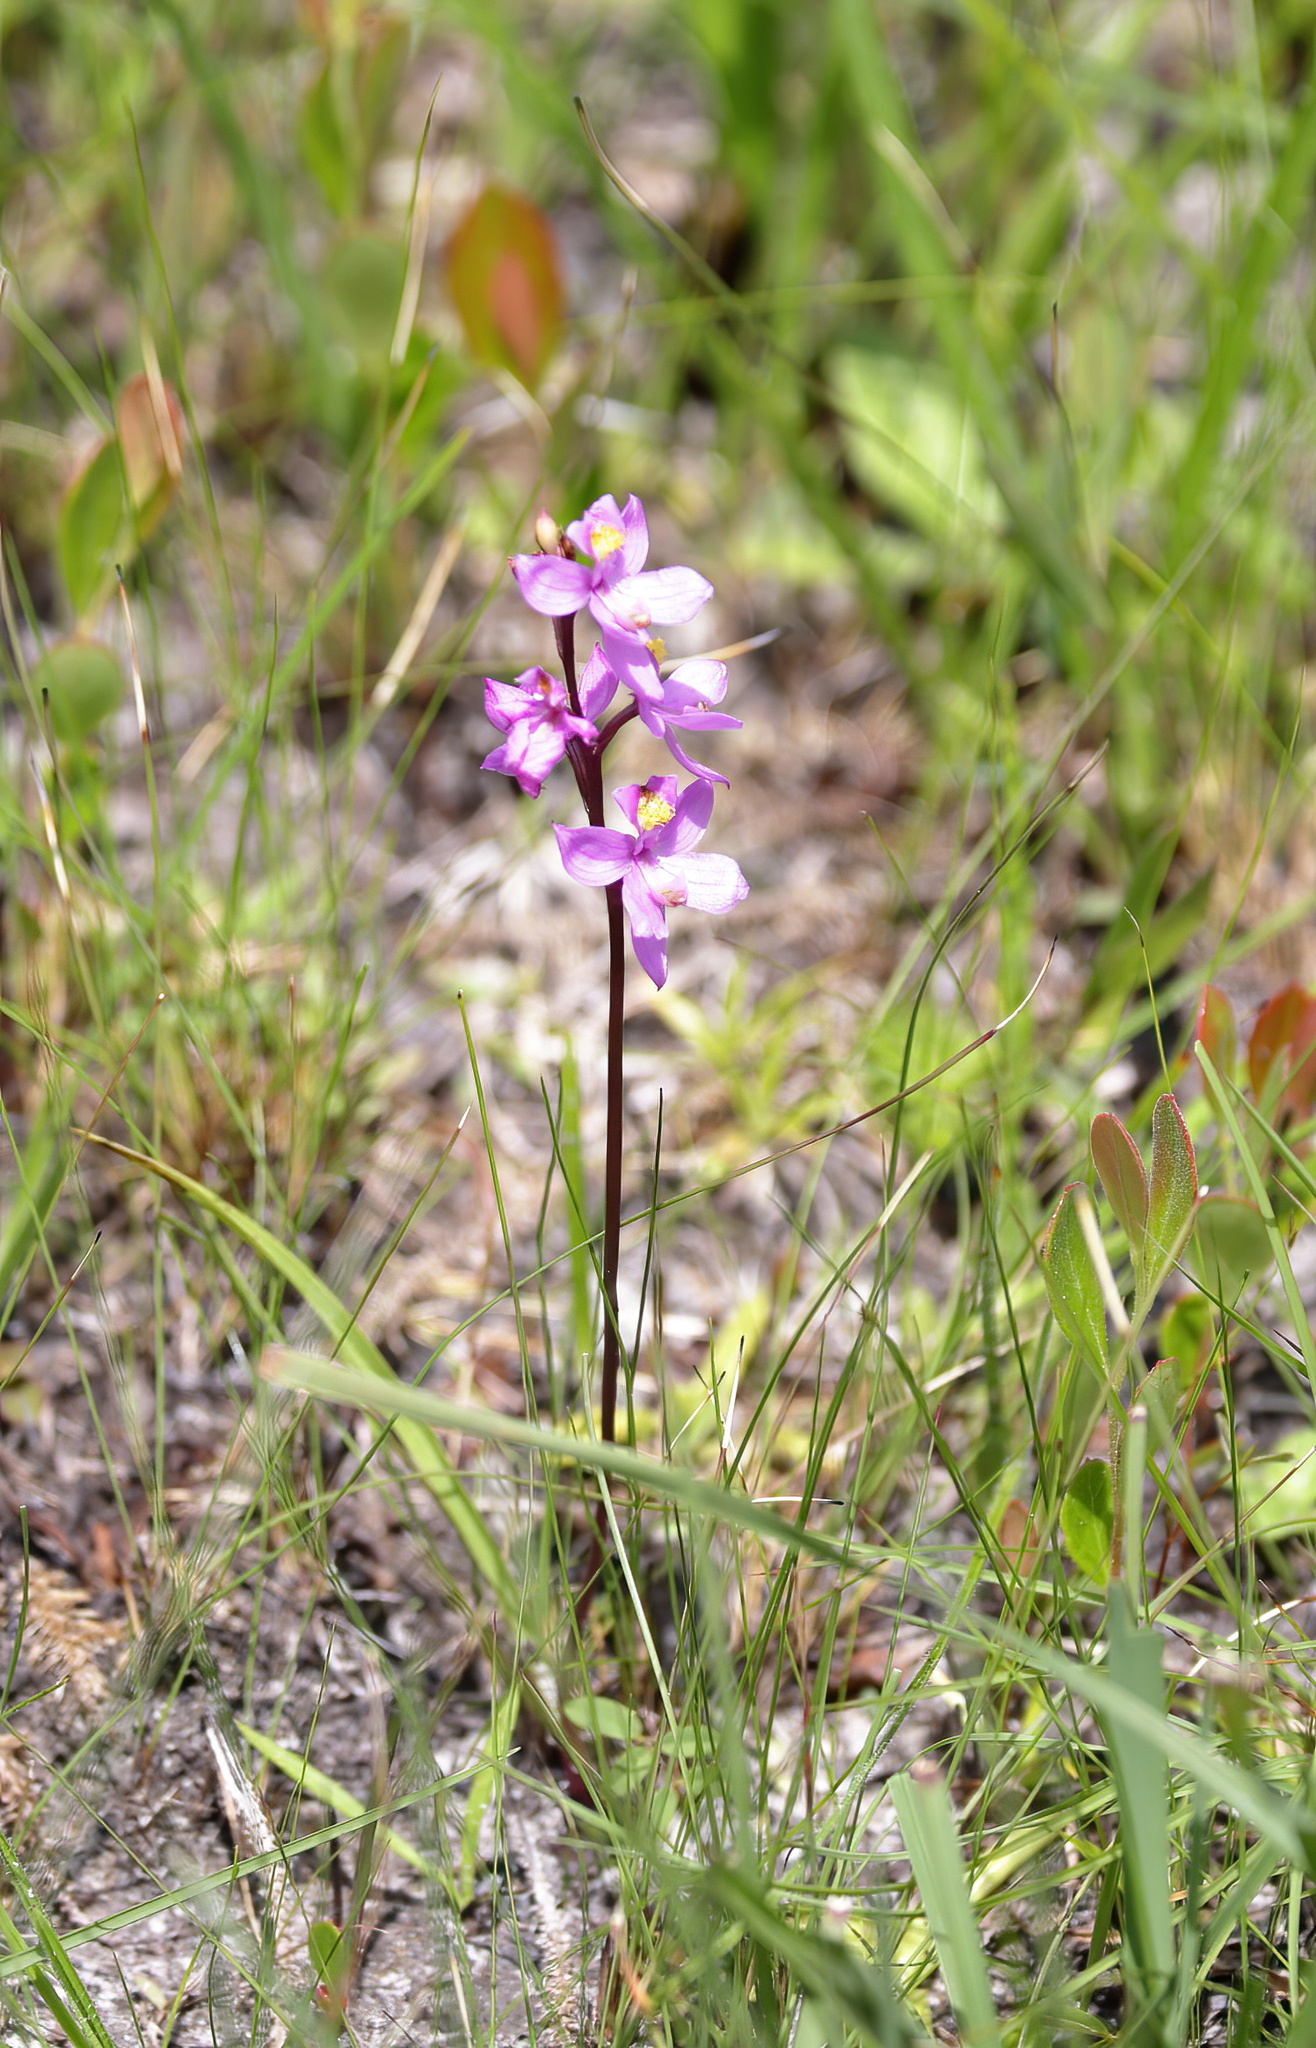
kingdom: Plantae
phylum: Tracheophyta
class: Liliopsida
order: Asparagales
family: Orchidaceae
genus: Calopogon
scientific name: Calopogon multiflorus
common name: Many-flowered grass-pink orchid
